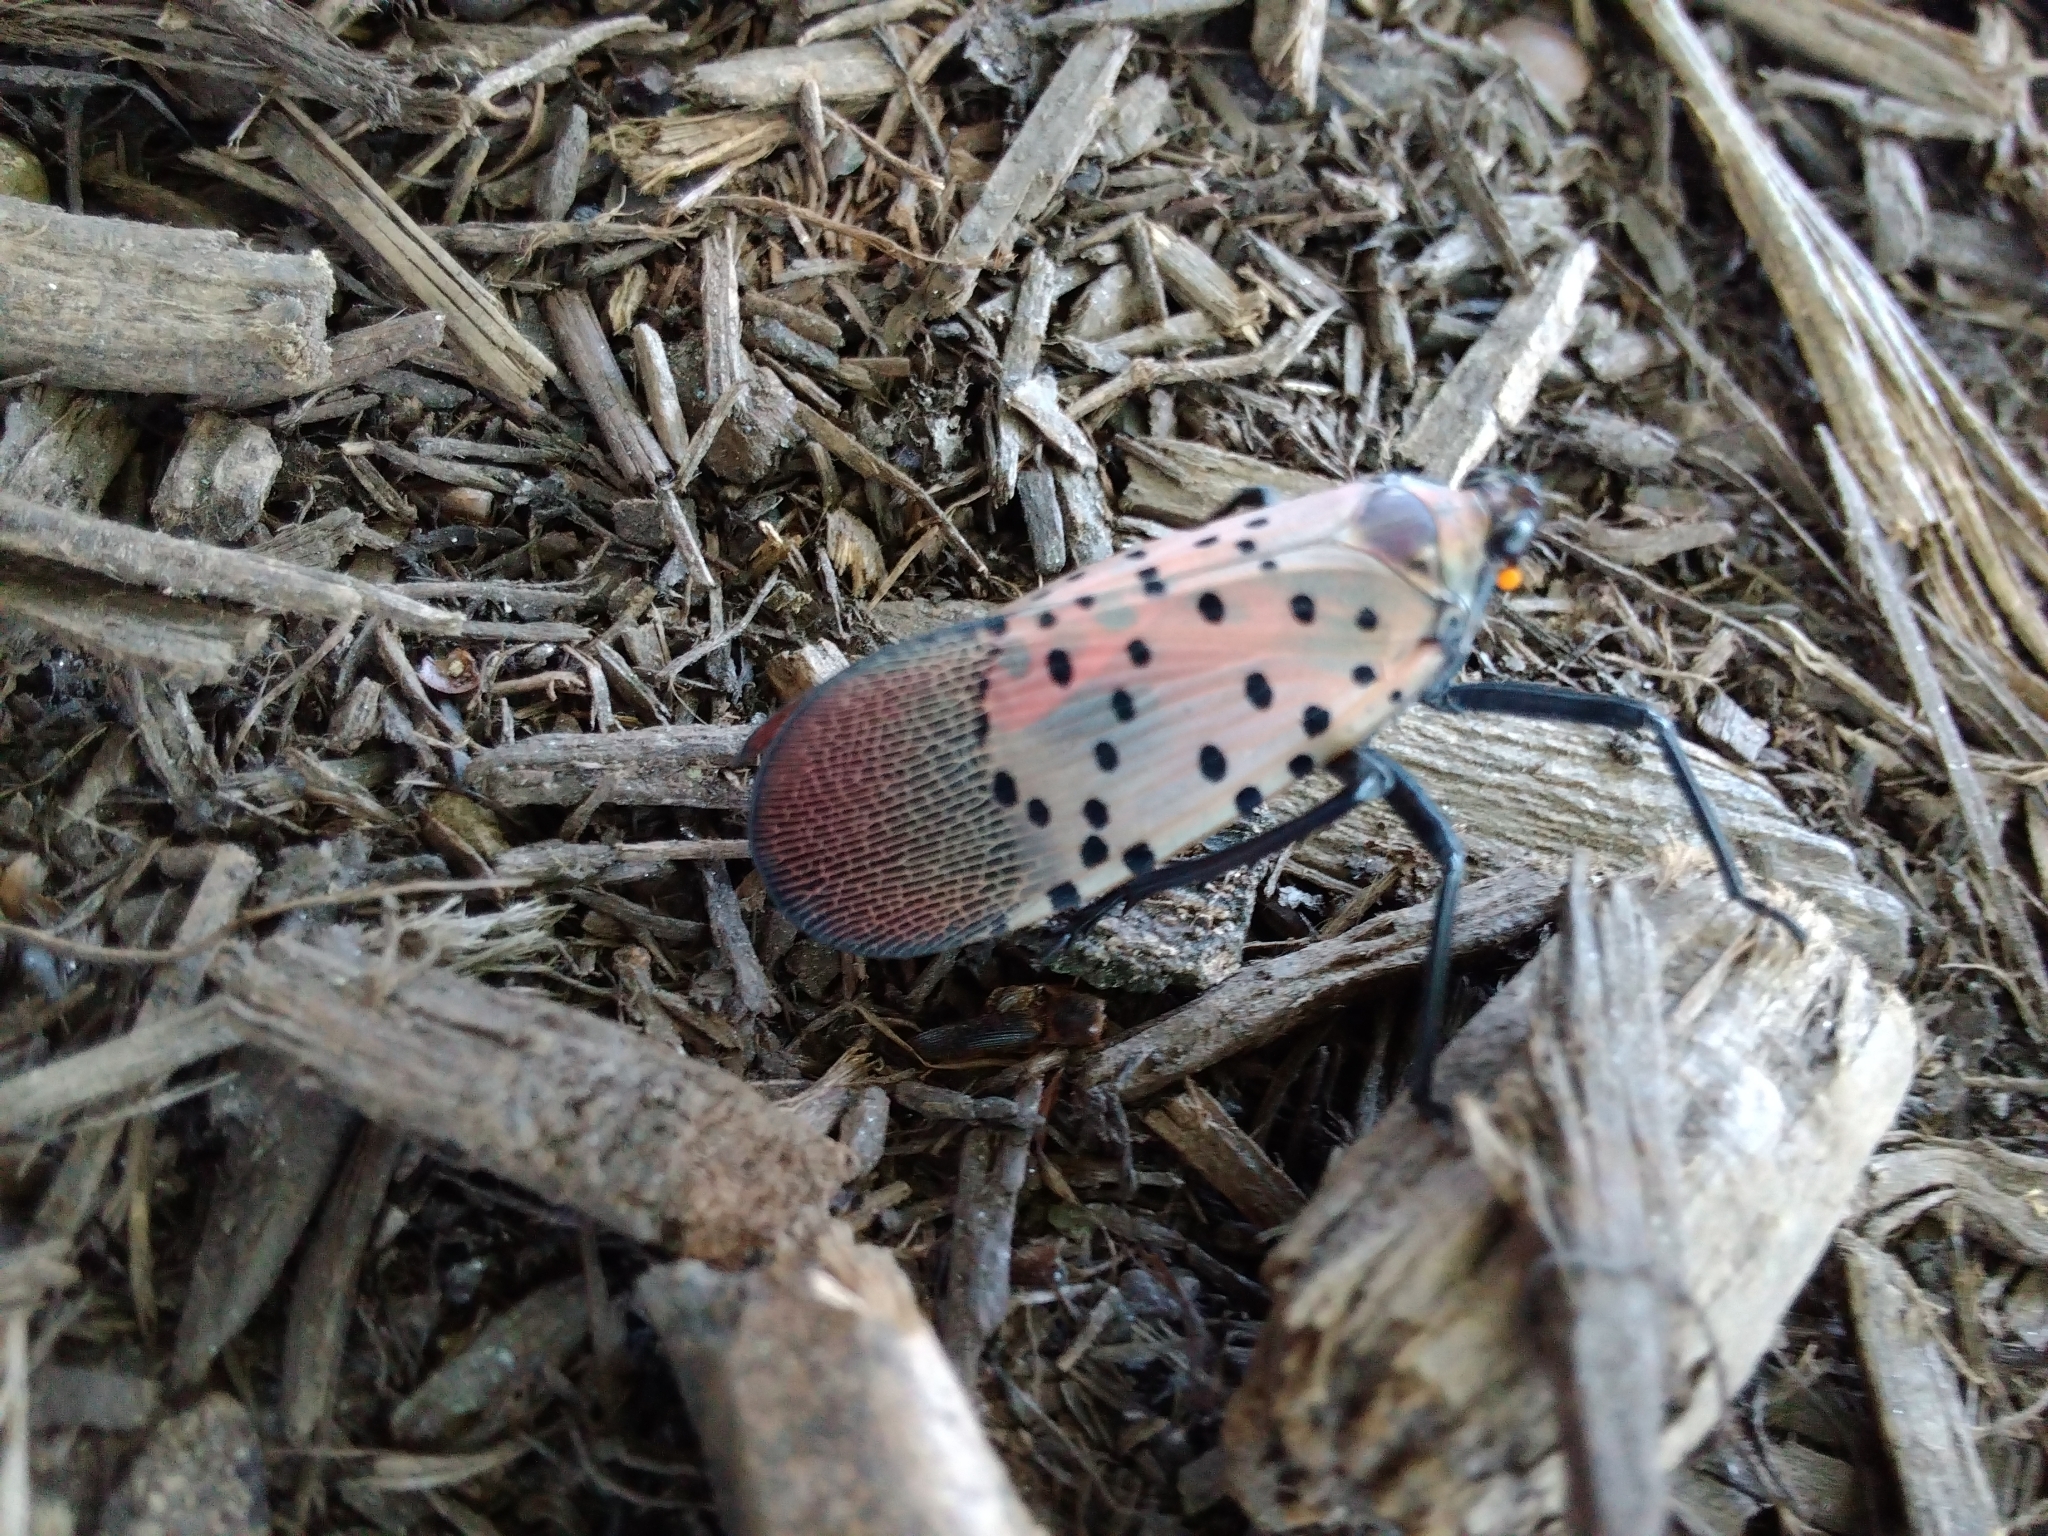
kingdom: Animalia
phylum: Arthropoda
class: Insecta
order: Hemiptera
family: Fulgoridae
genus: Lycorma
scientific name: Lycorma delicatula
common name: Spotted lanternfly
